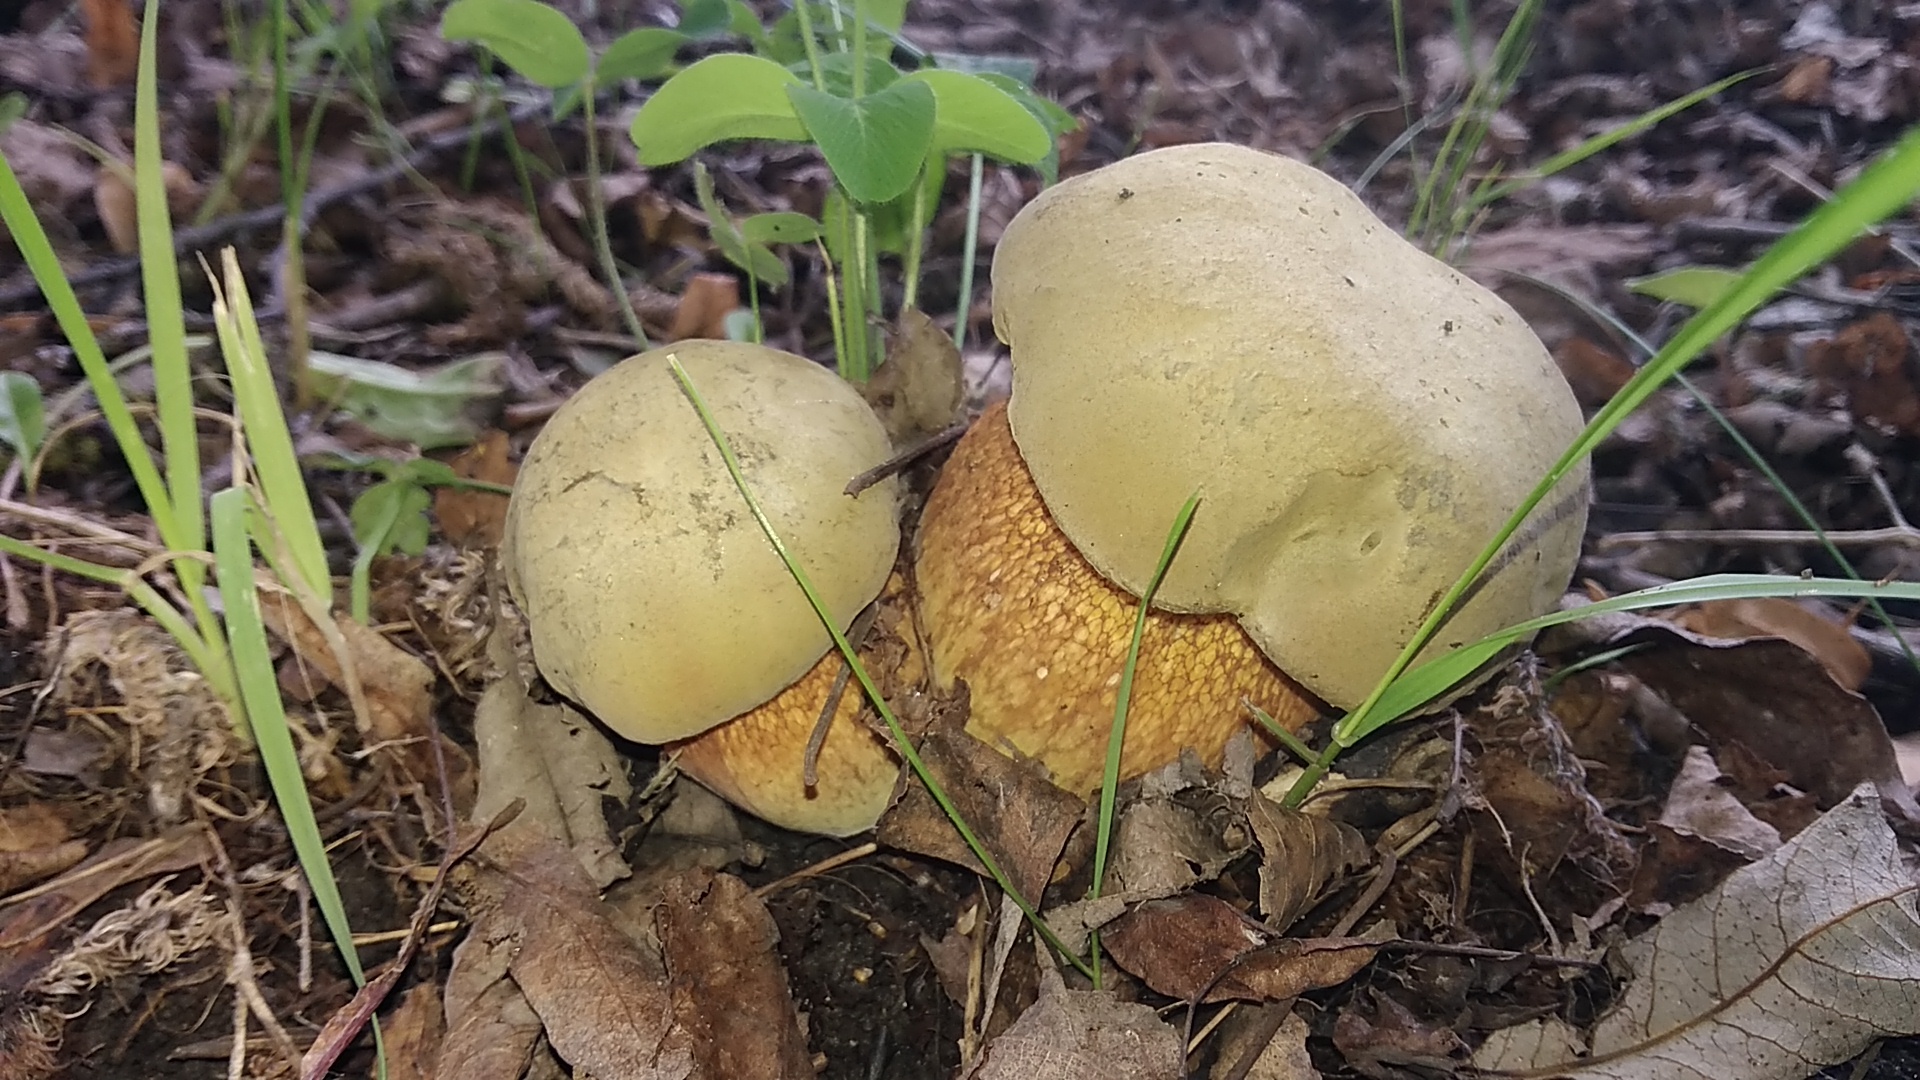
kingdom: Fungi
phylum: Basidiomycota
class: Agaricomycetes
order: Boletales
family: Boletaceae
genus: Suillellus
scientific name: Suillellus luridus
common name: Lurid bolete
